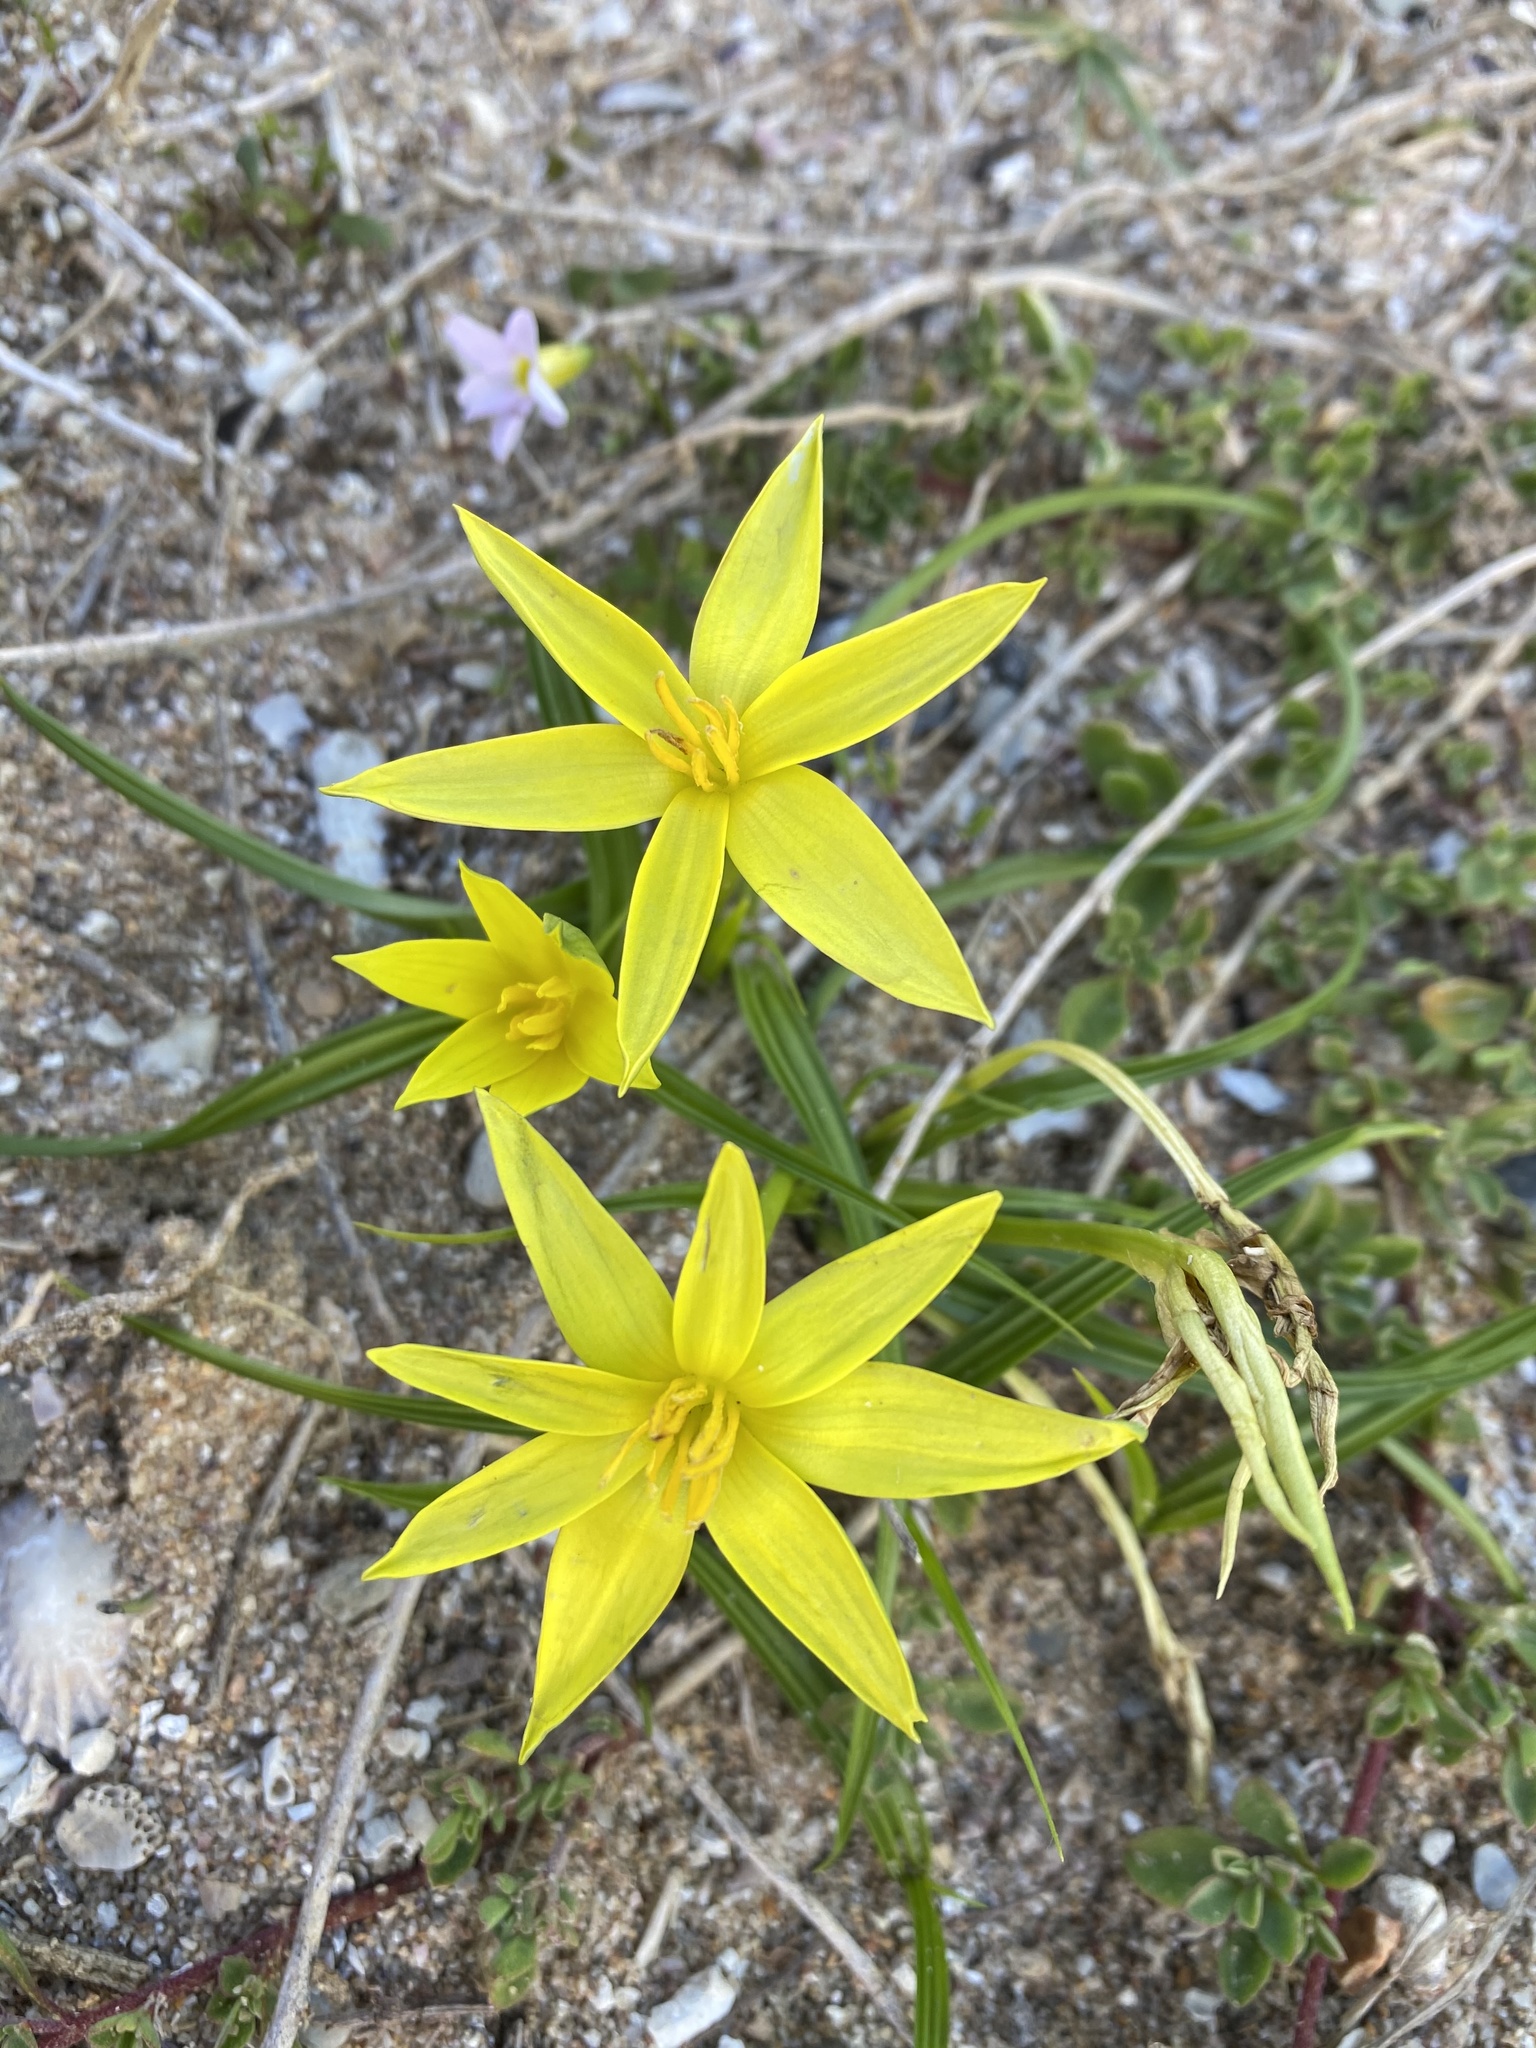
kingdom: Plantae
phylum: Tracheophyta
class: Liliopsida
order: Asparagales
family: Hypoxidaceae
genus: Empodium
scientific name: Empodium plicatum
